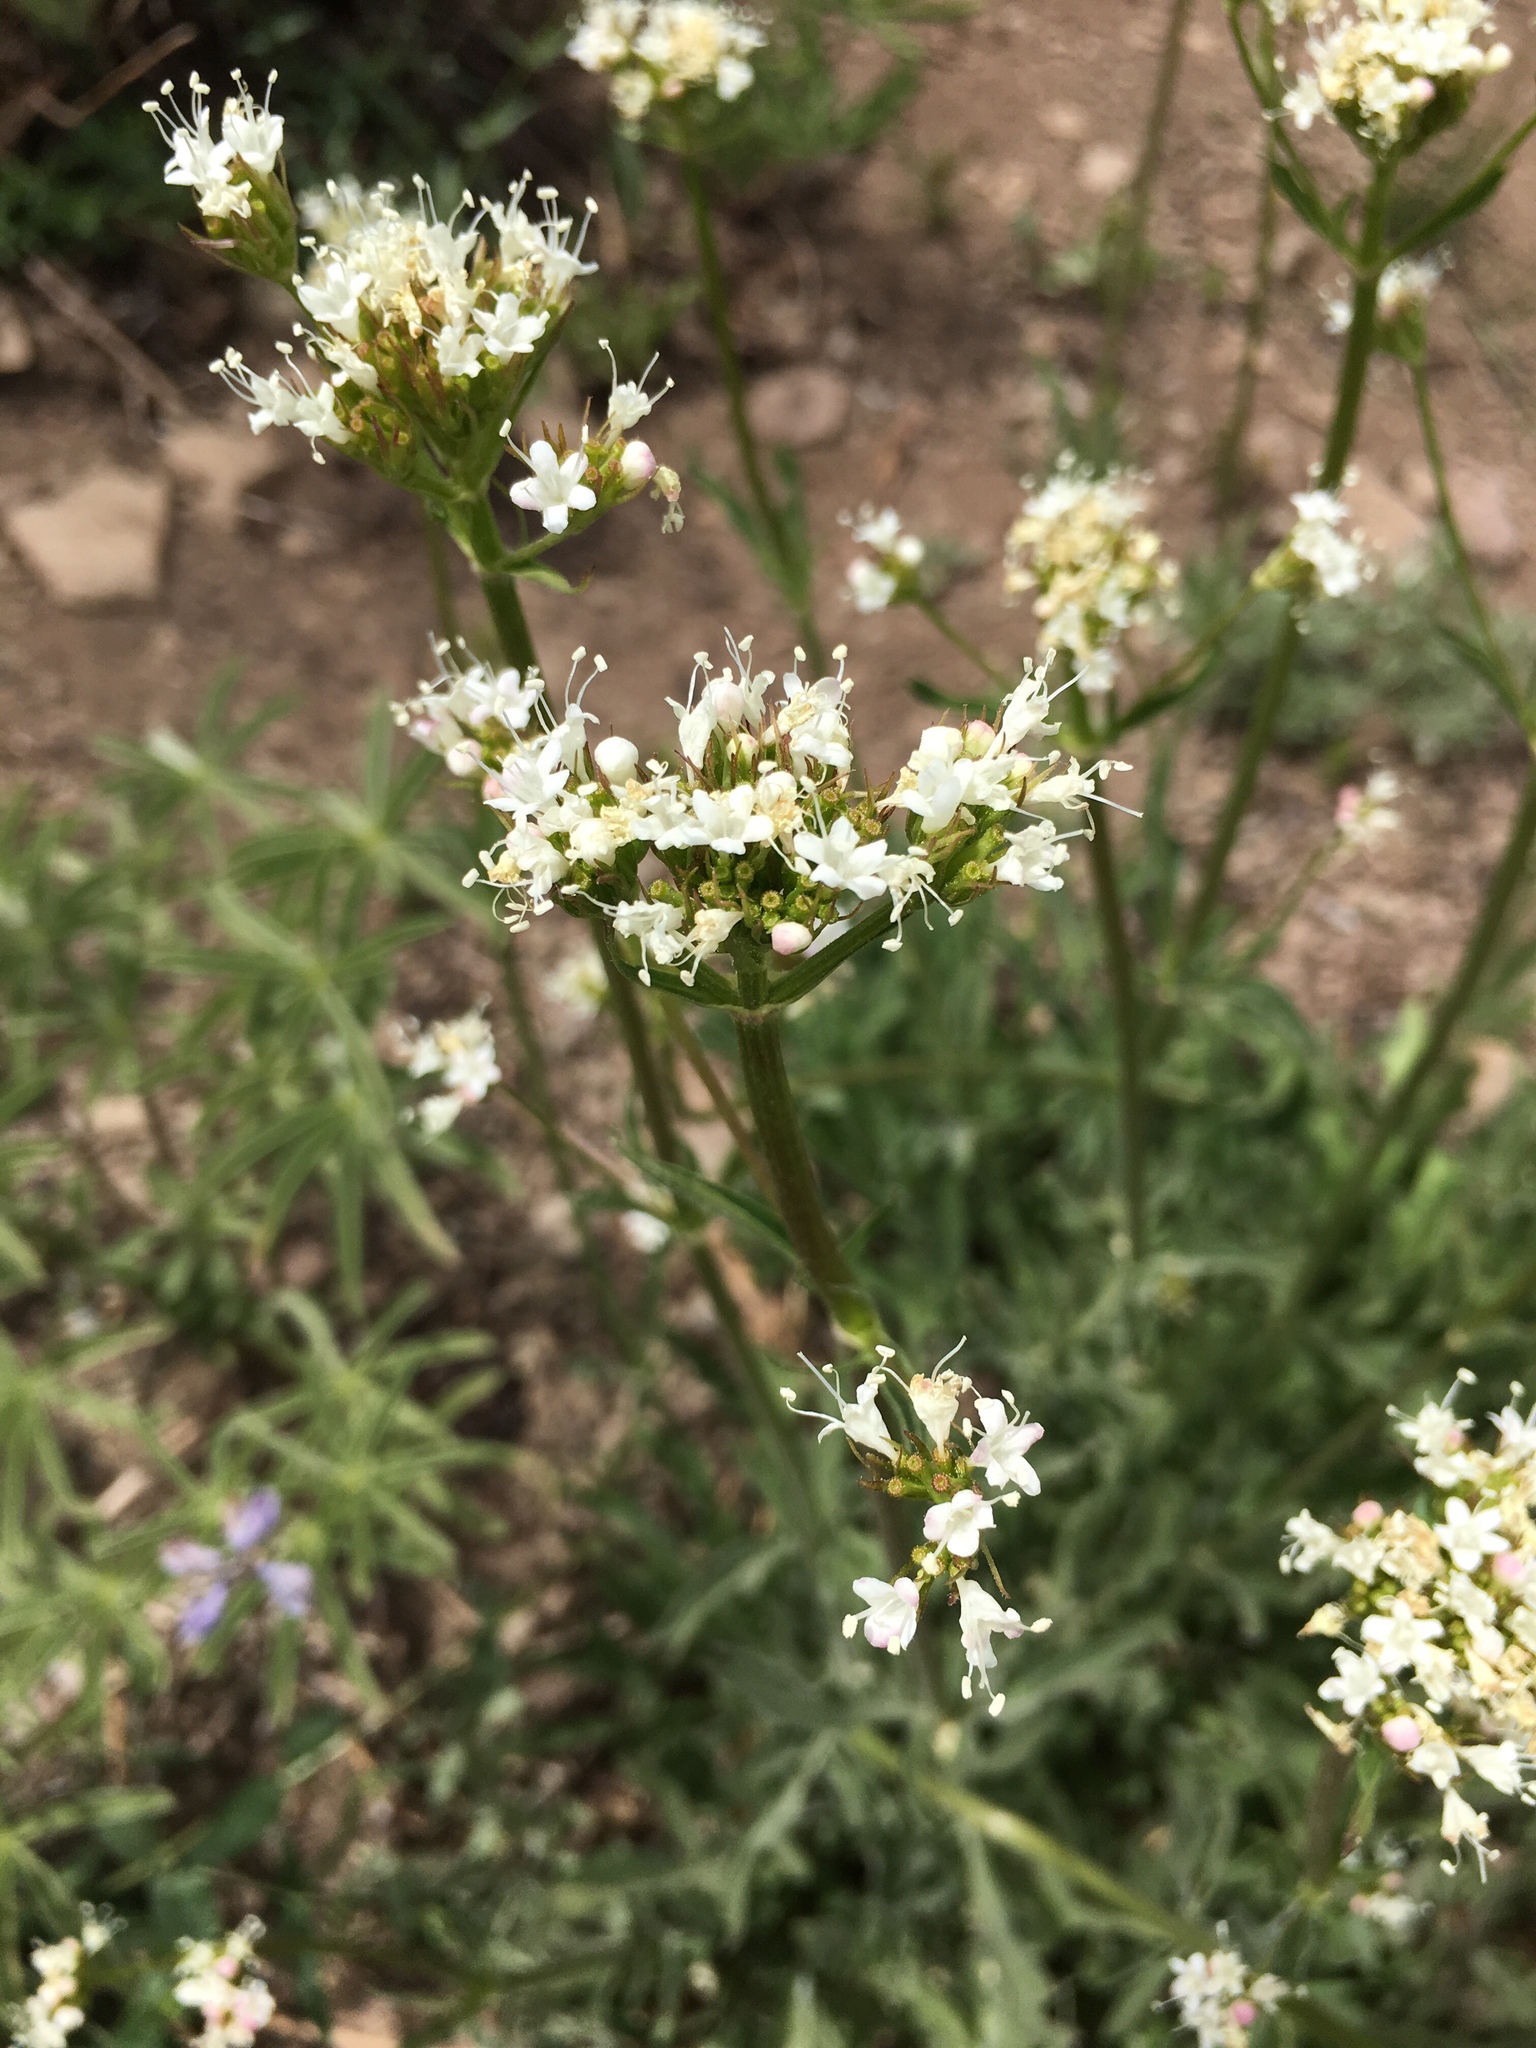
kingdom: Plantae
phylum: Tracheophyta
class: Magnoliopsida
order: Dipsacales
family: Caprifoliaceae
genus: Valeriana
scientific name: Valeriana californica
